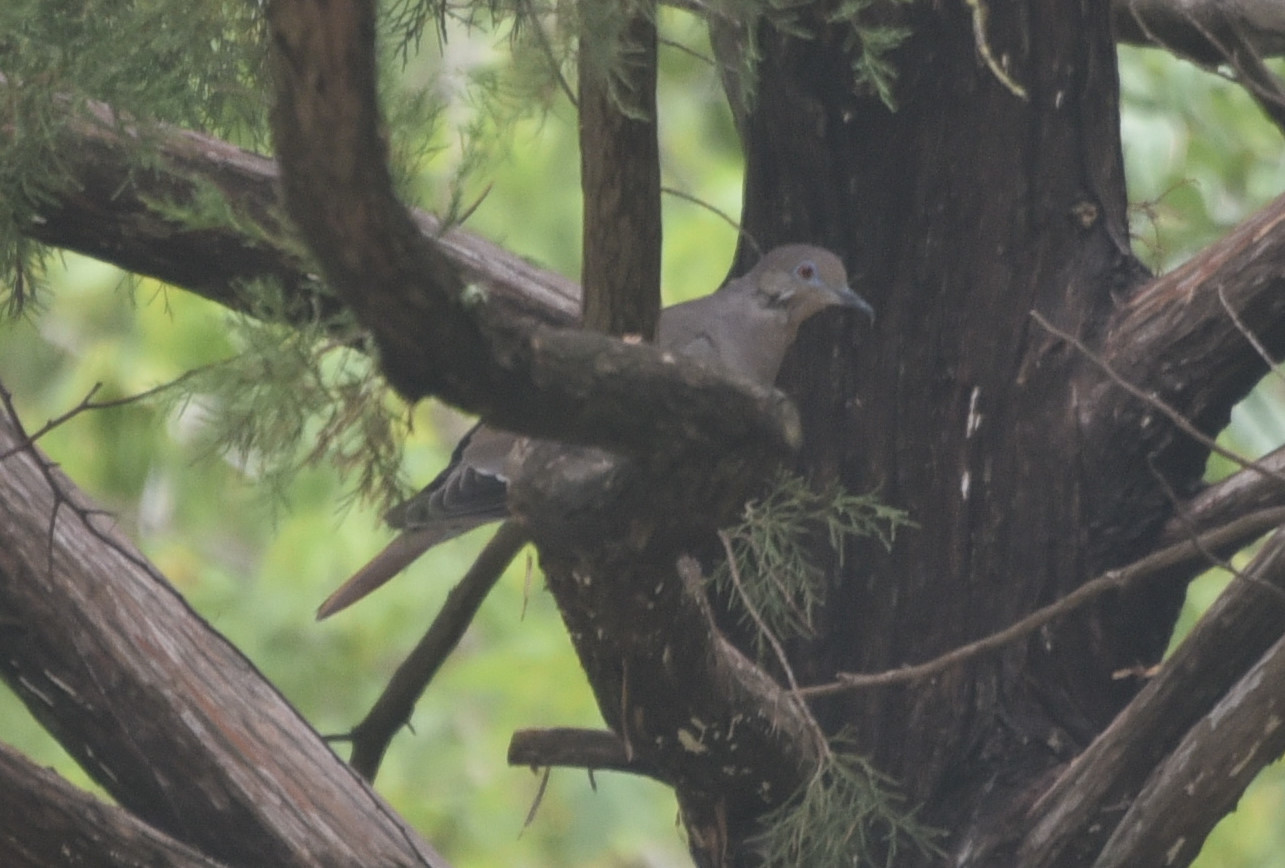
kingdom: Animalia
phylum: Chordata
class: Aves
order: Columbiformes
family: Columbidae
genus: Zenaida
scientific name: Zenaida asiatica
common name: White-winged dove
